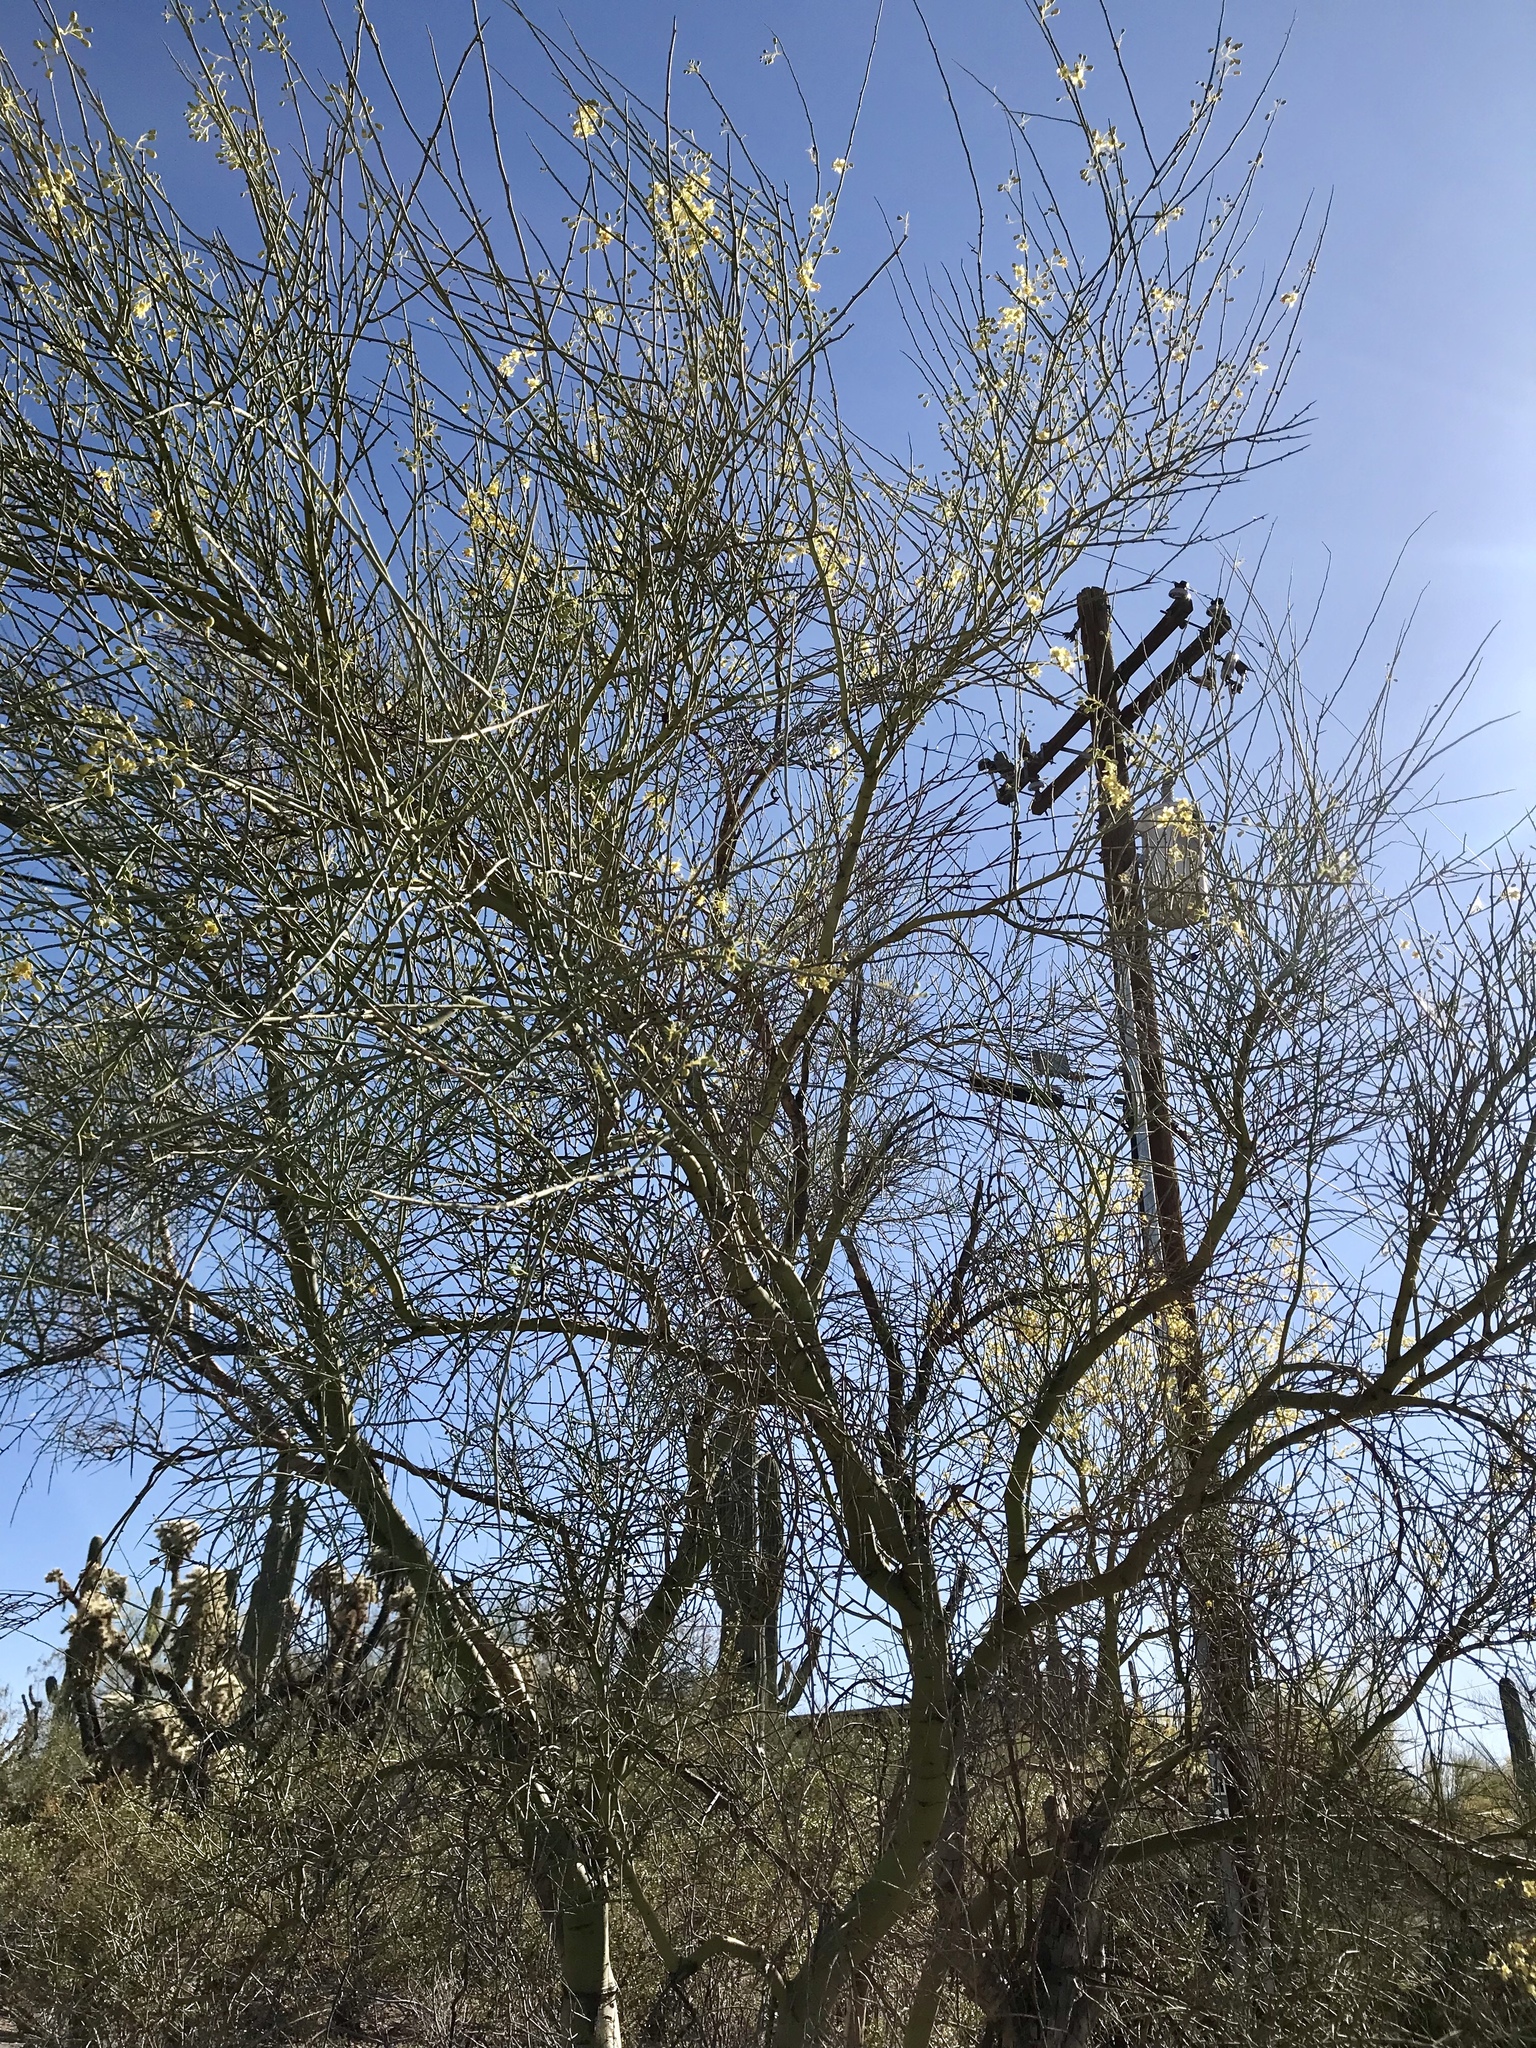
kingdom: Plantae
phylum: Tracheophyta
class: Magnoliopsida
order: Fabales
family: Fabaceae
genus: Parkinsonia
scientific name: Parkinsonia florida
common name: Blue paloverde
